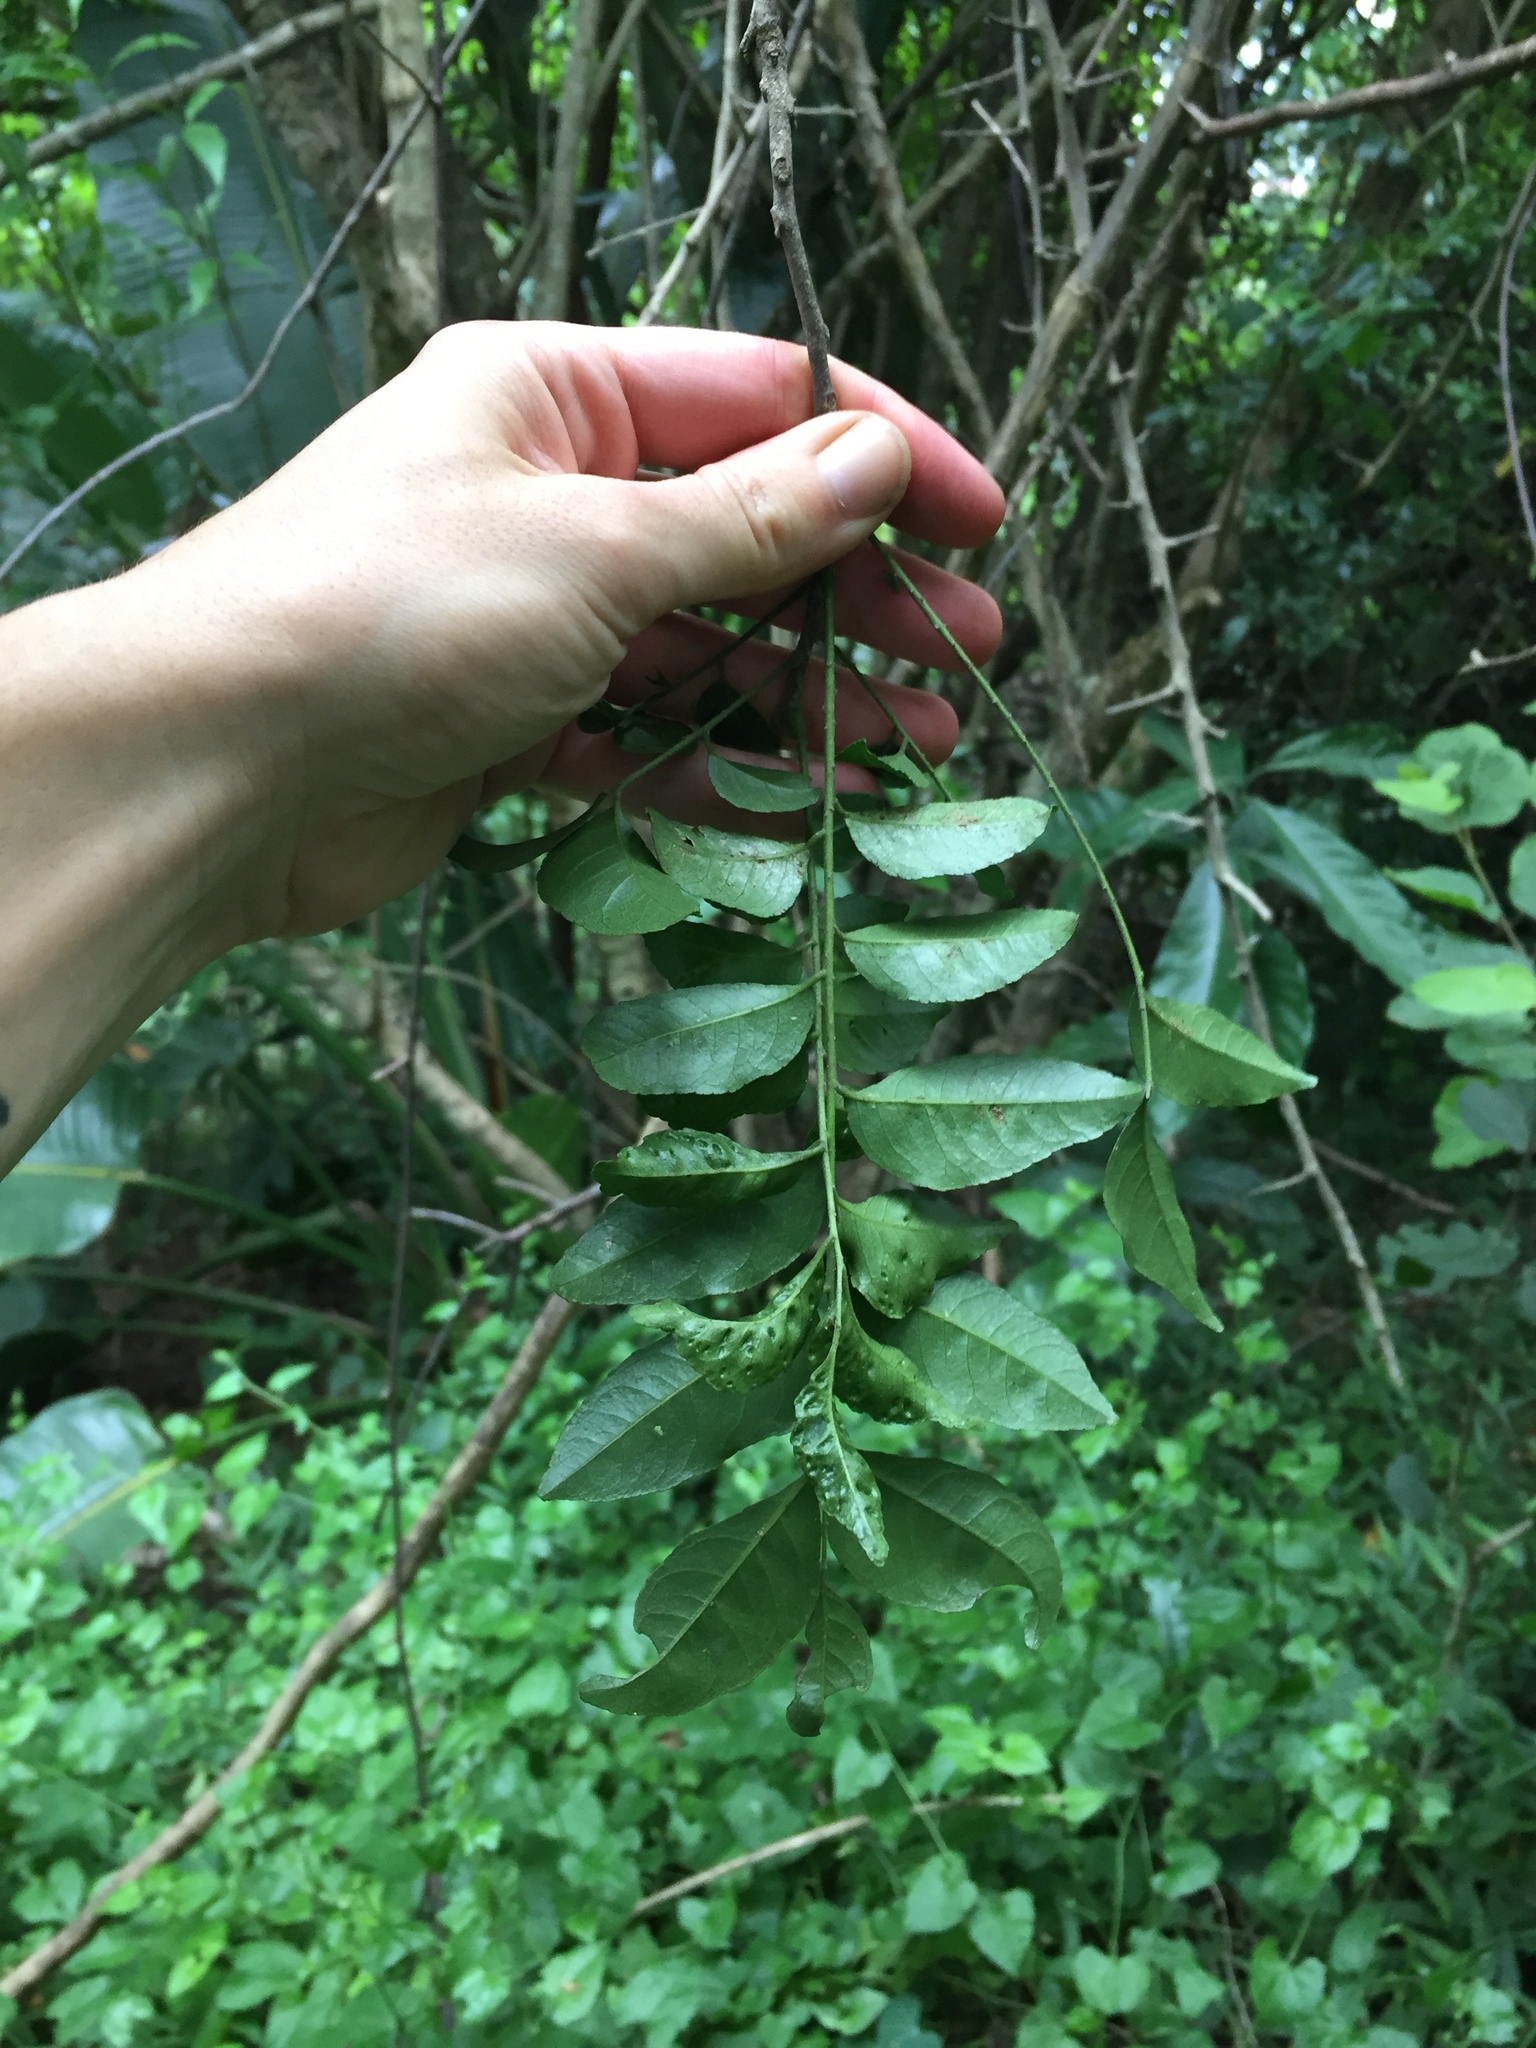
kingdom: Plantae
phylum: Tracheophyta
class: Magnoliopsida
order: Sapindales
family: Rutaceae
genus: Clausena
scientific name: Clausena anisata
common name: Horsewood
